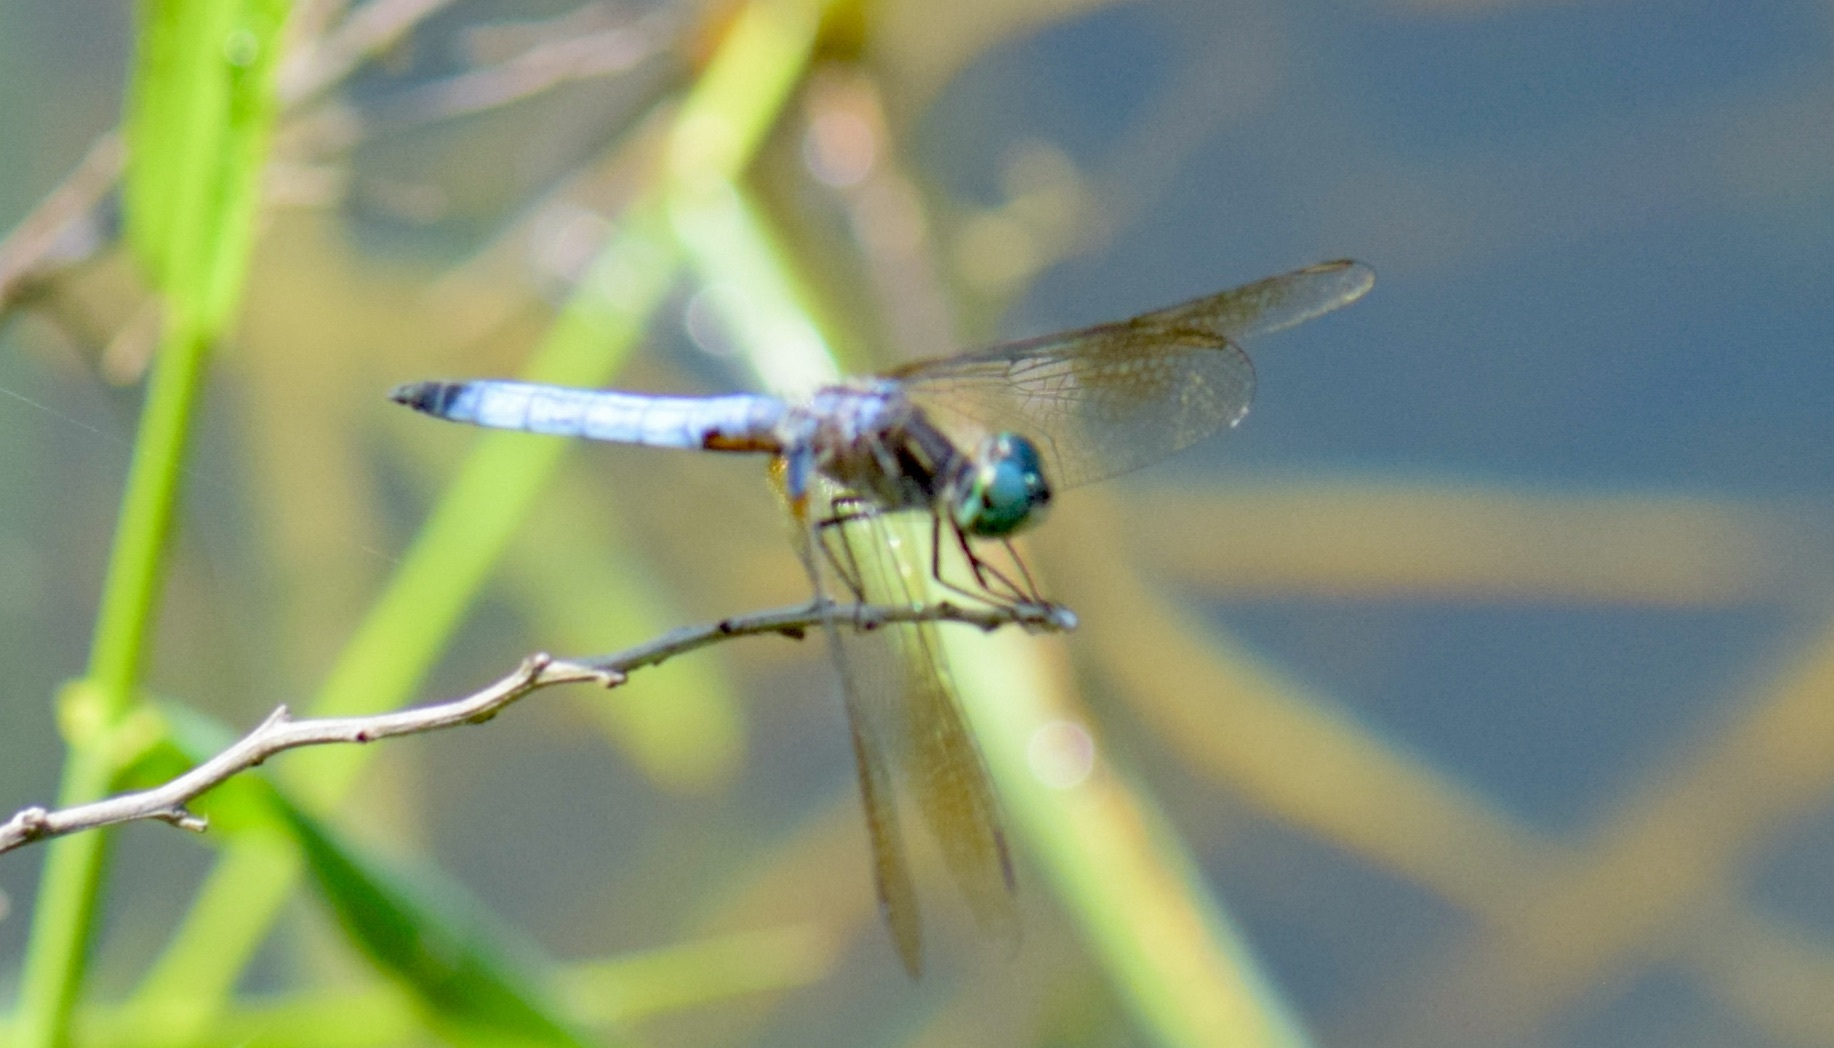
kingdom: Animalia
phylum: Arthropoda
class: Insecta
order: Odonata
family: Libellulidae
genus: Pachydiplax
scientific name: Pachydiplax longipennis
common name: Blue dasher
